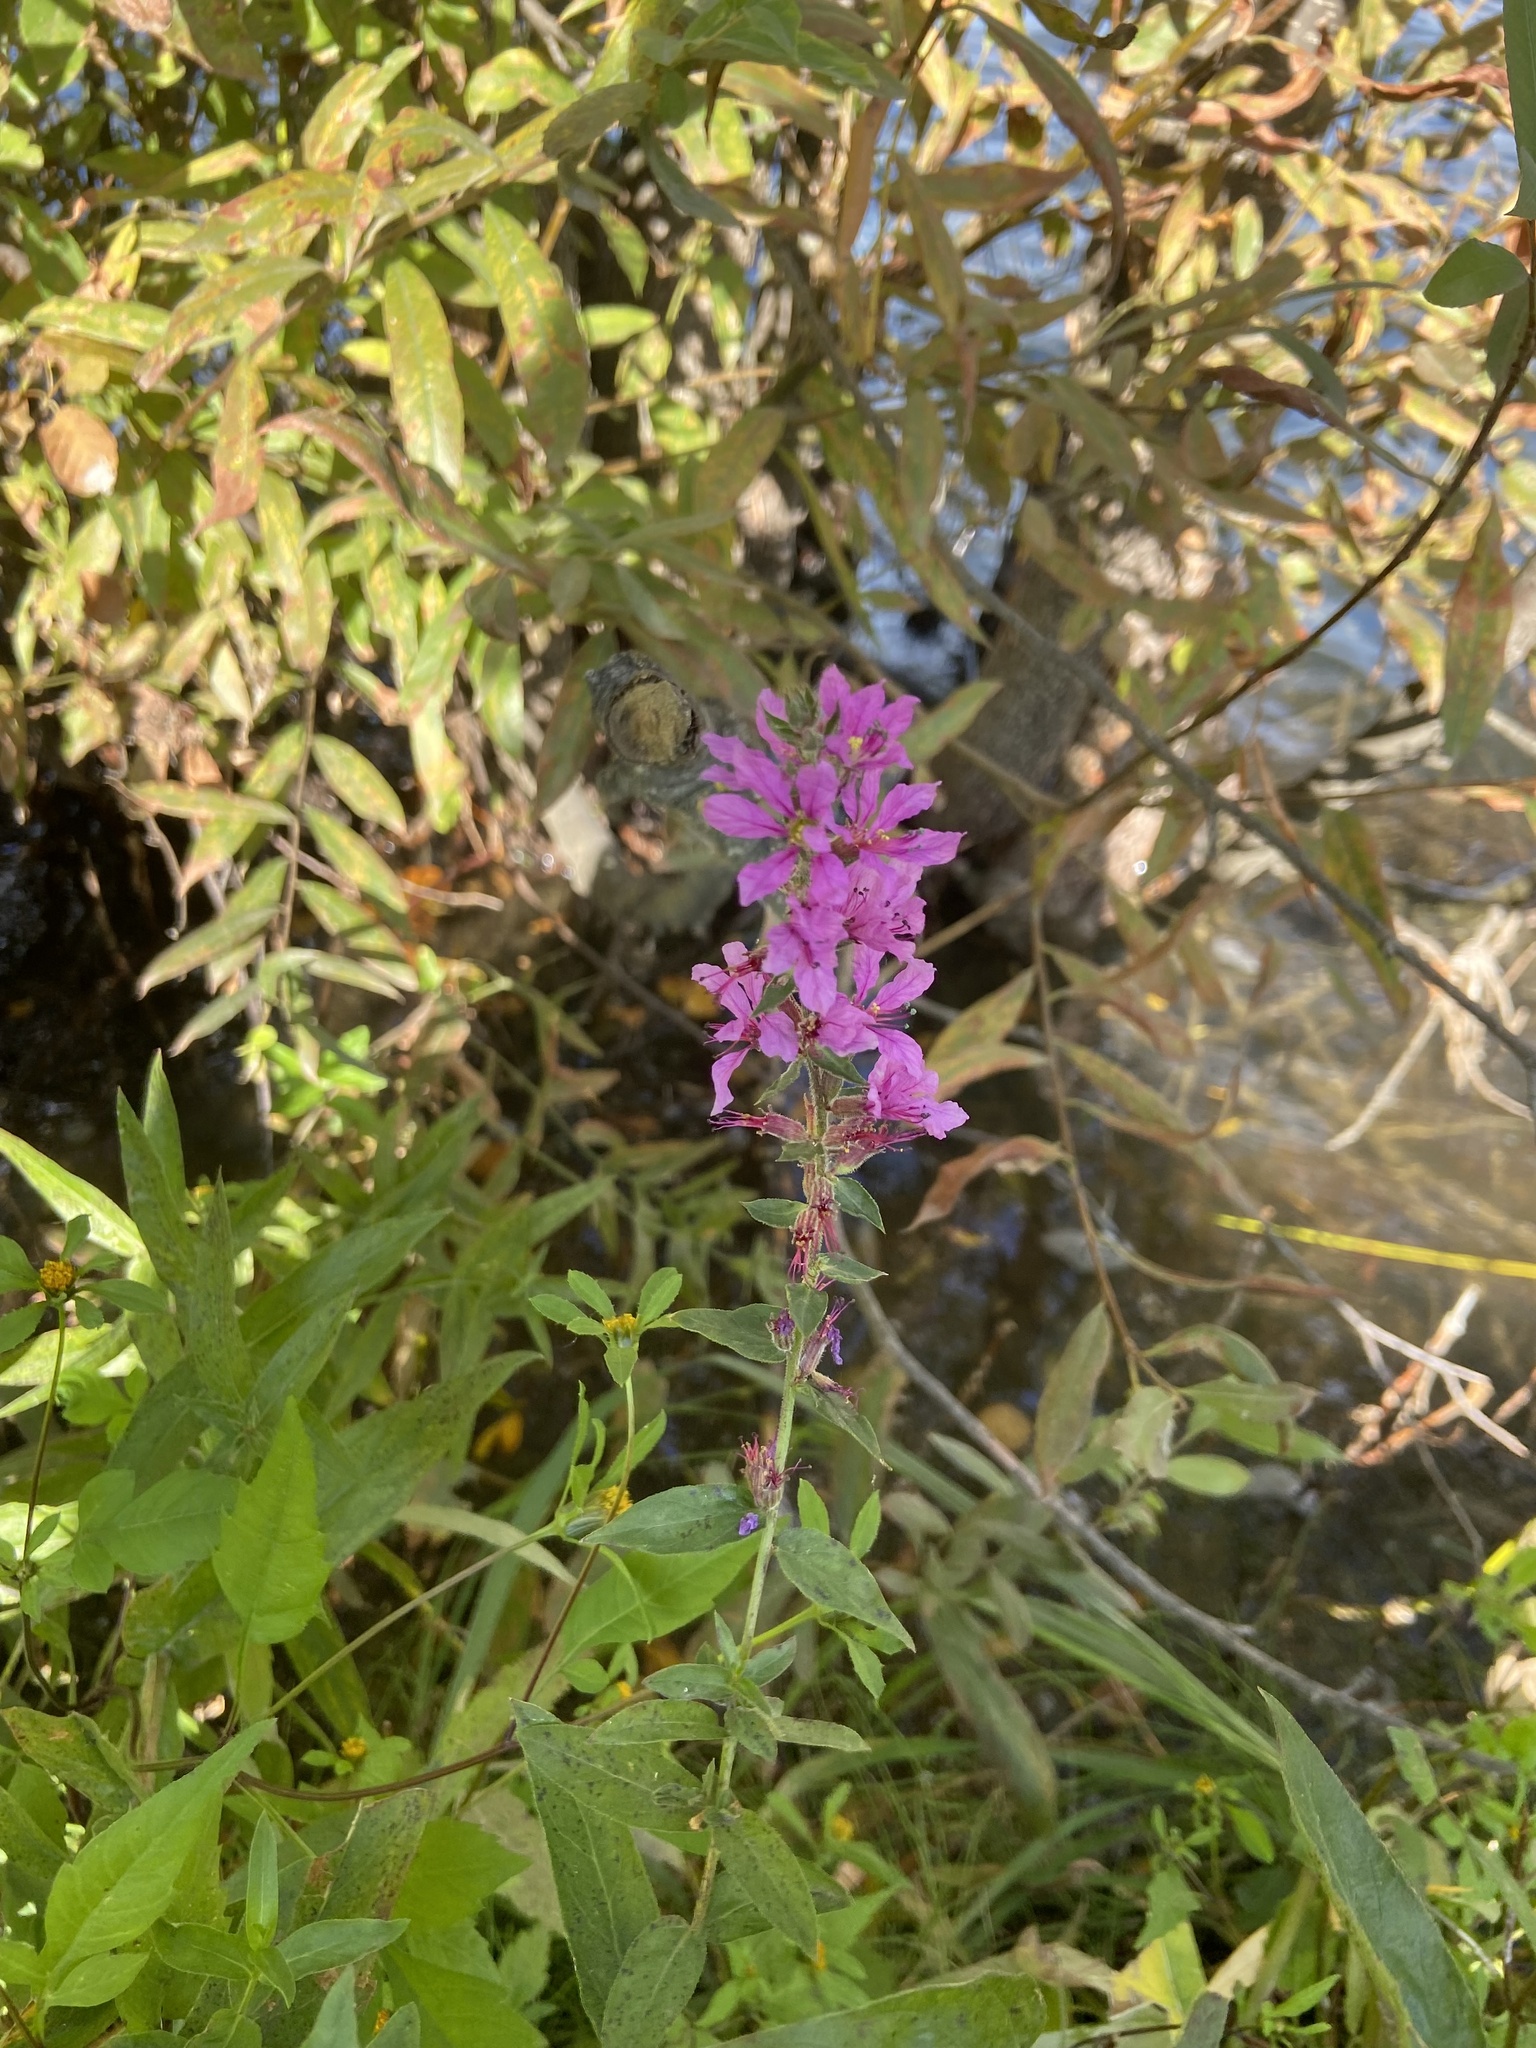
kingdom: Plantae
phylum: Tracheophyta
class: Magnoliopsida
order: Lamiales
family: Lamiaceae
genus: Stachys
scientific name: Stachys palustris
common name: Marsh woundwort
